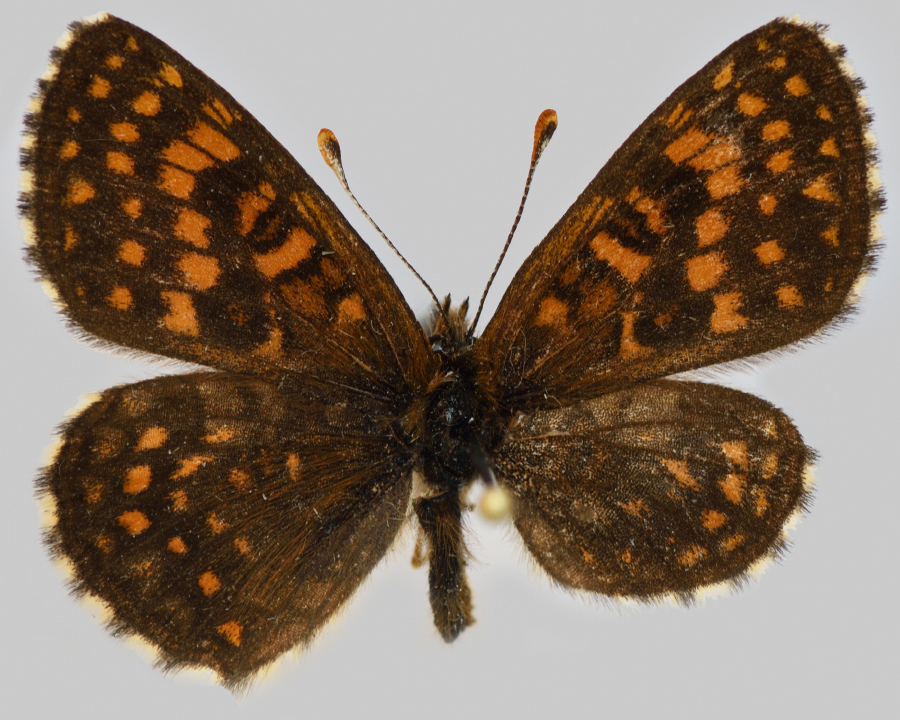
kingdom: Animalia
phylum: Arthropoda
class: Insecta
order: Lepidoptera
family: Nymphalidae
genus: Mellicta
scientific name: Mellicta britomartis
